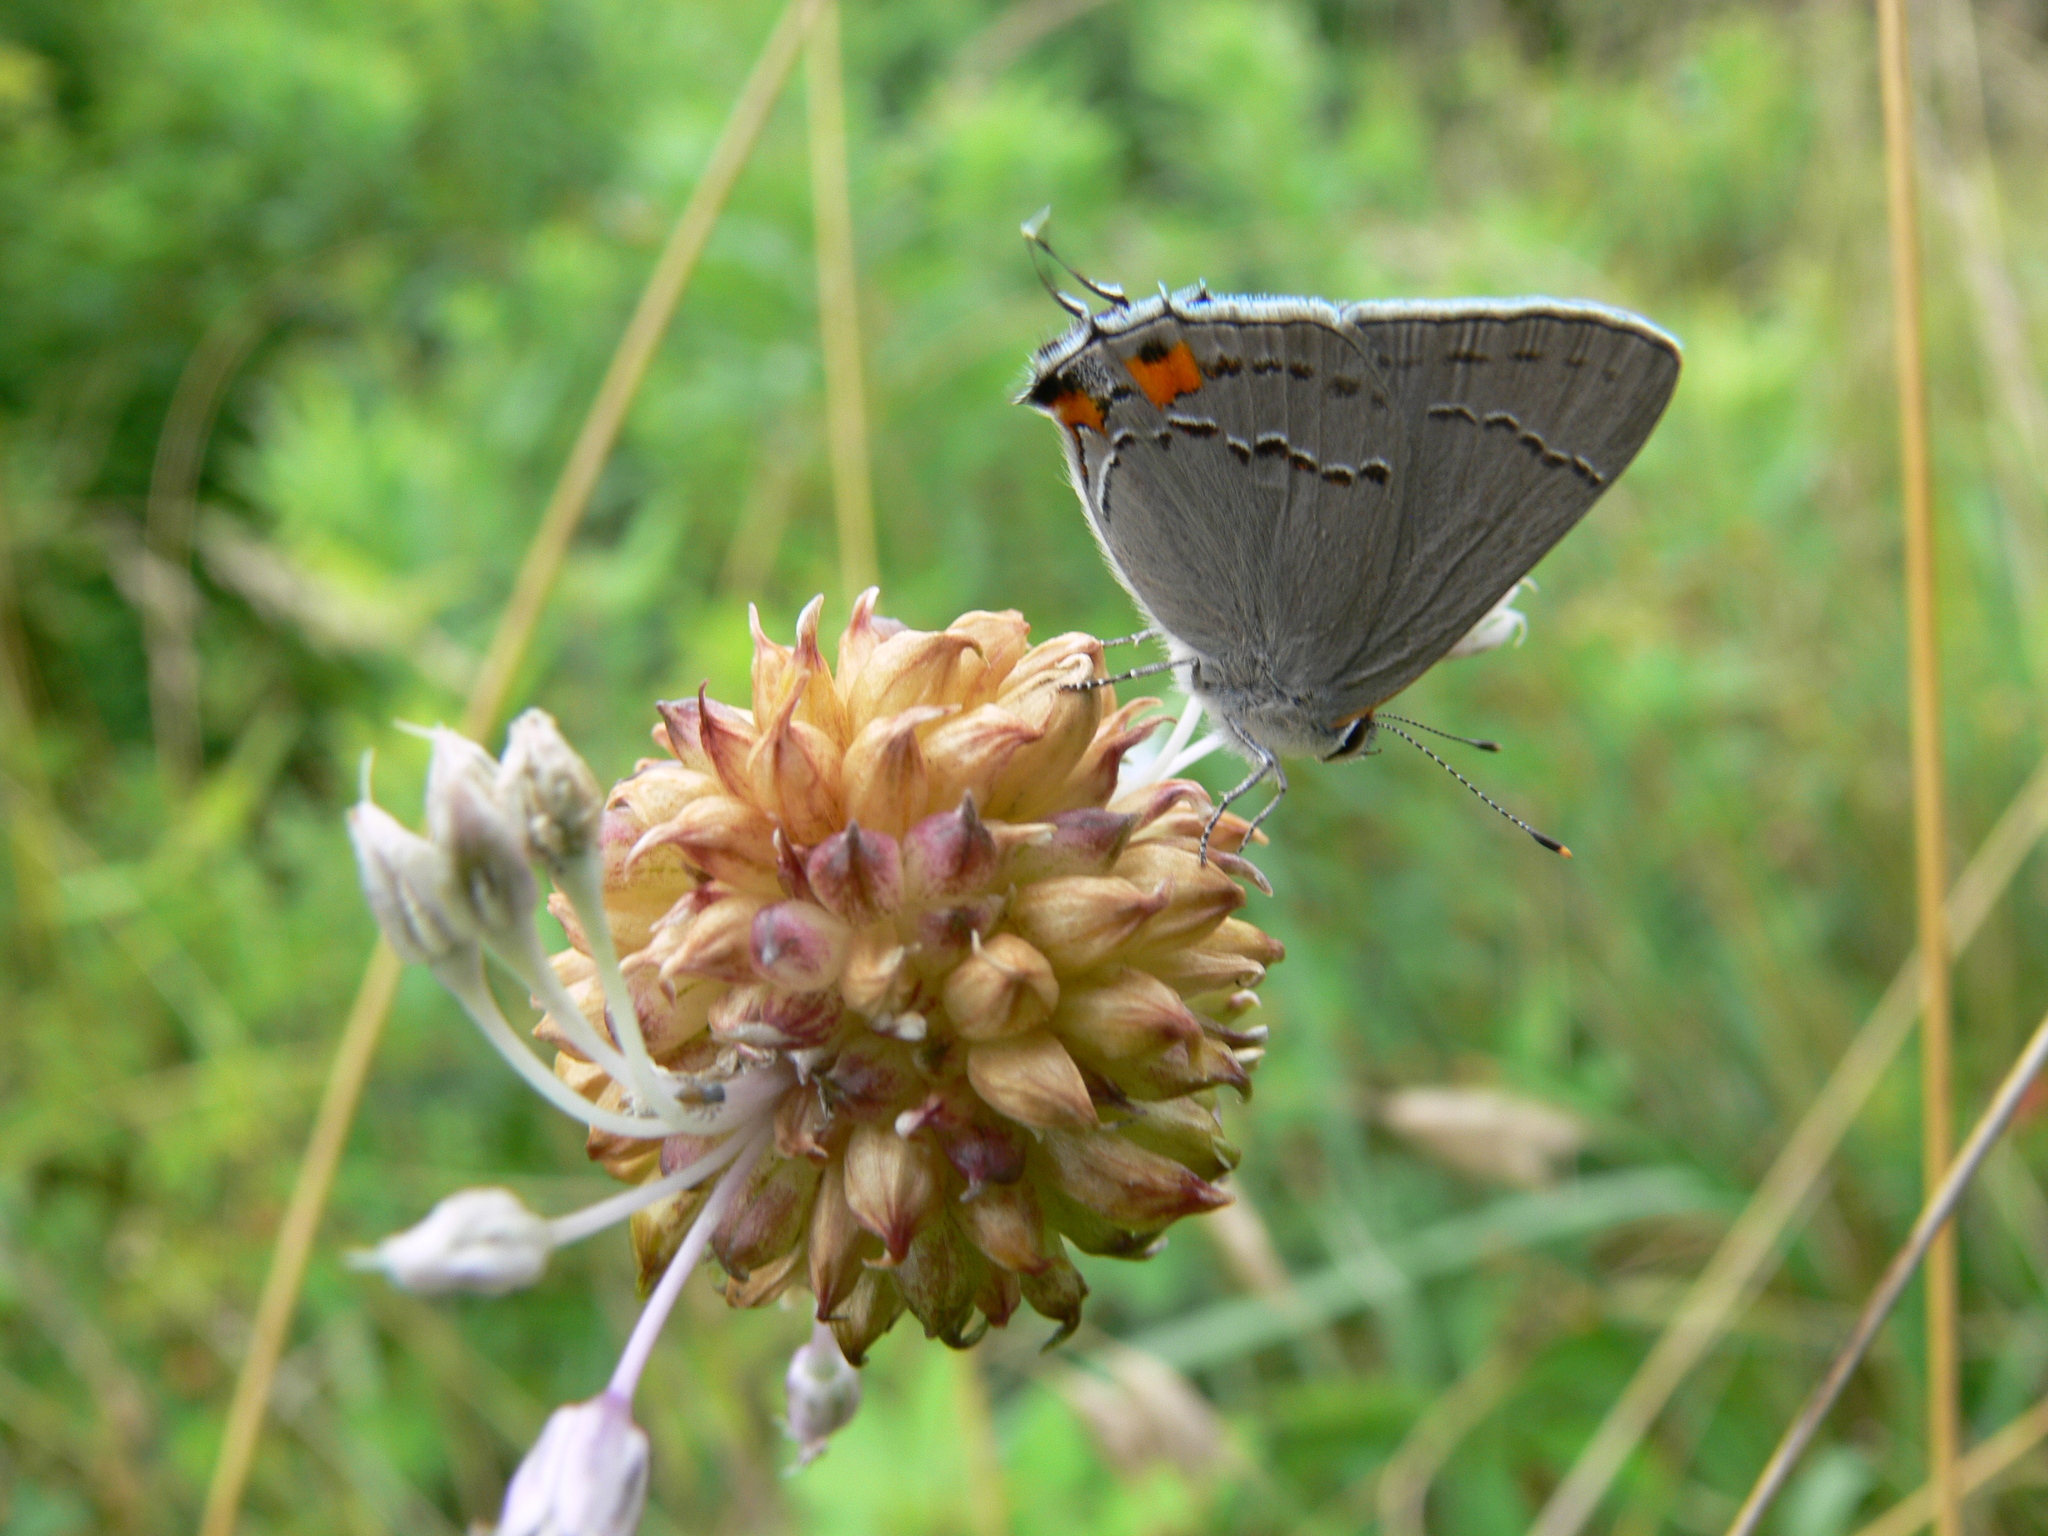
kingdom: Animalia
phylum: Arthropoda
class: Insecta
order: Lepidoptera
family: Lycaenidae
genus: Strymon
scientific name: Strymon melinus
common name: Gray hairstreak
